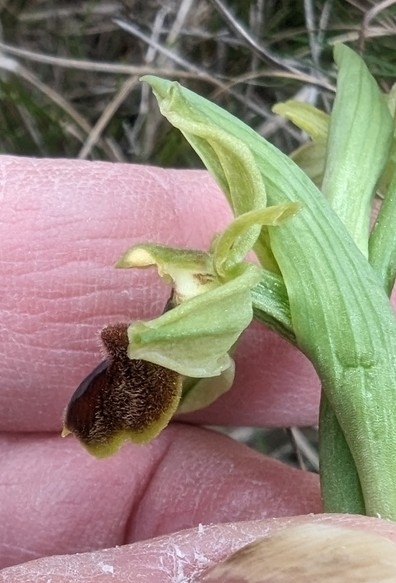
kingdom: Plantae
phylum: Tracheophyta
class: Liliopsida
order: Asparagales
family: Orchidaceae
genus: Ophrys
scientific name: Ophrys sphegodes
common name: Early spider-orchid
